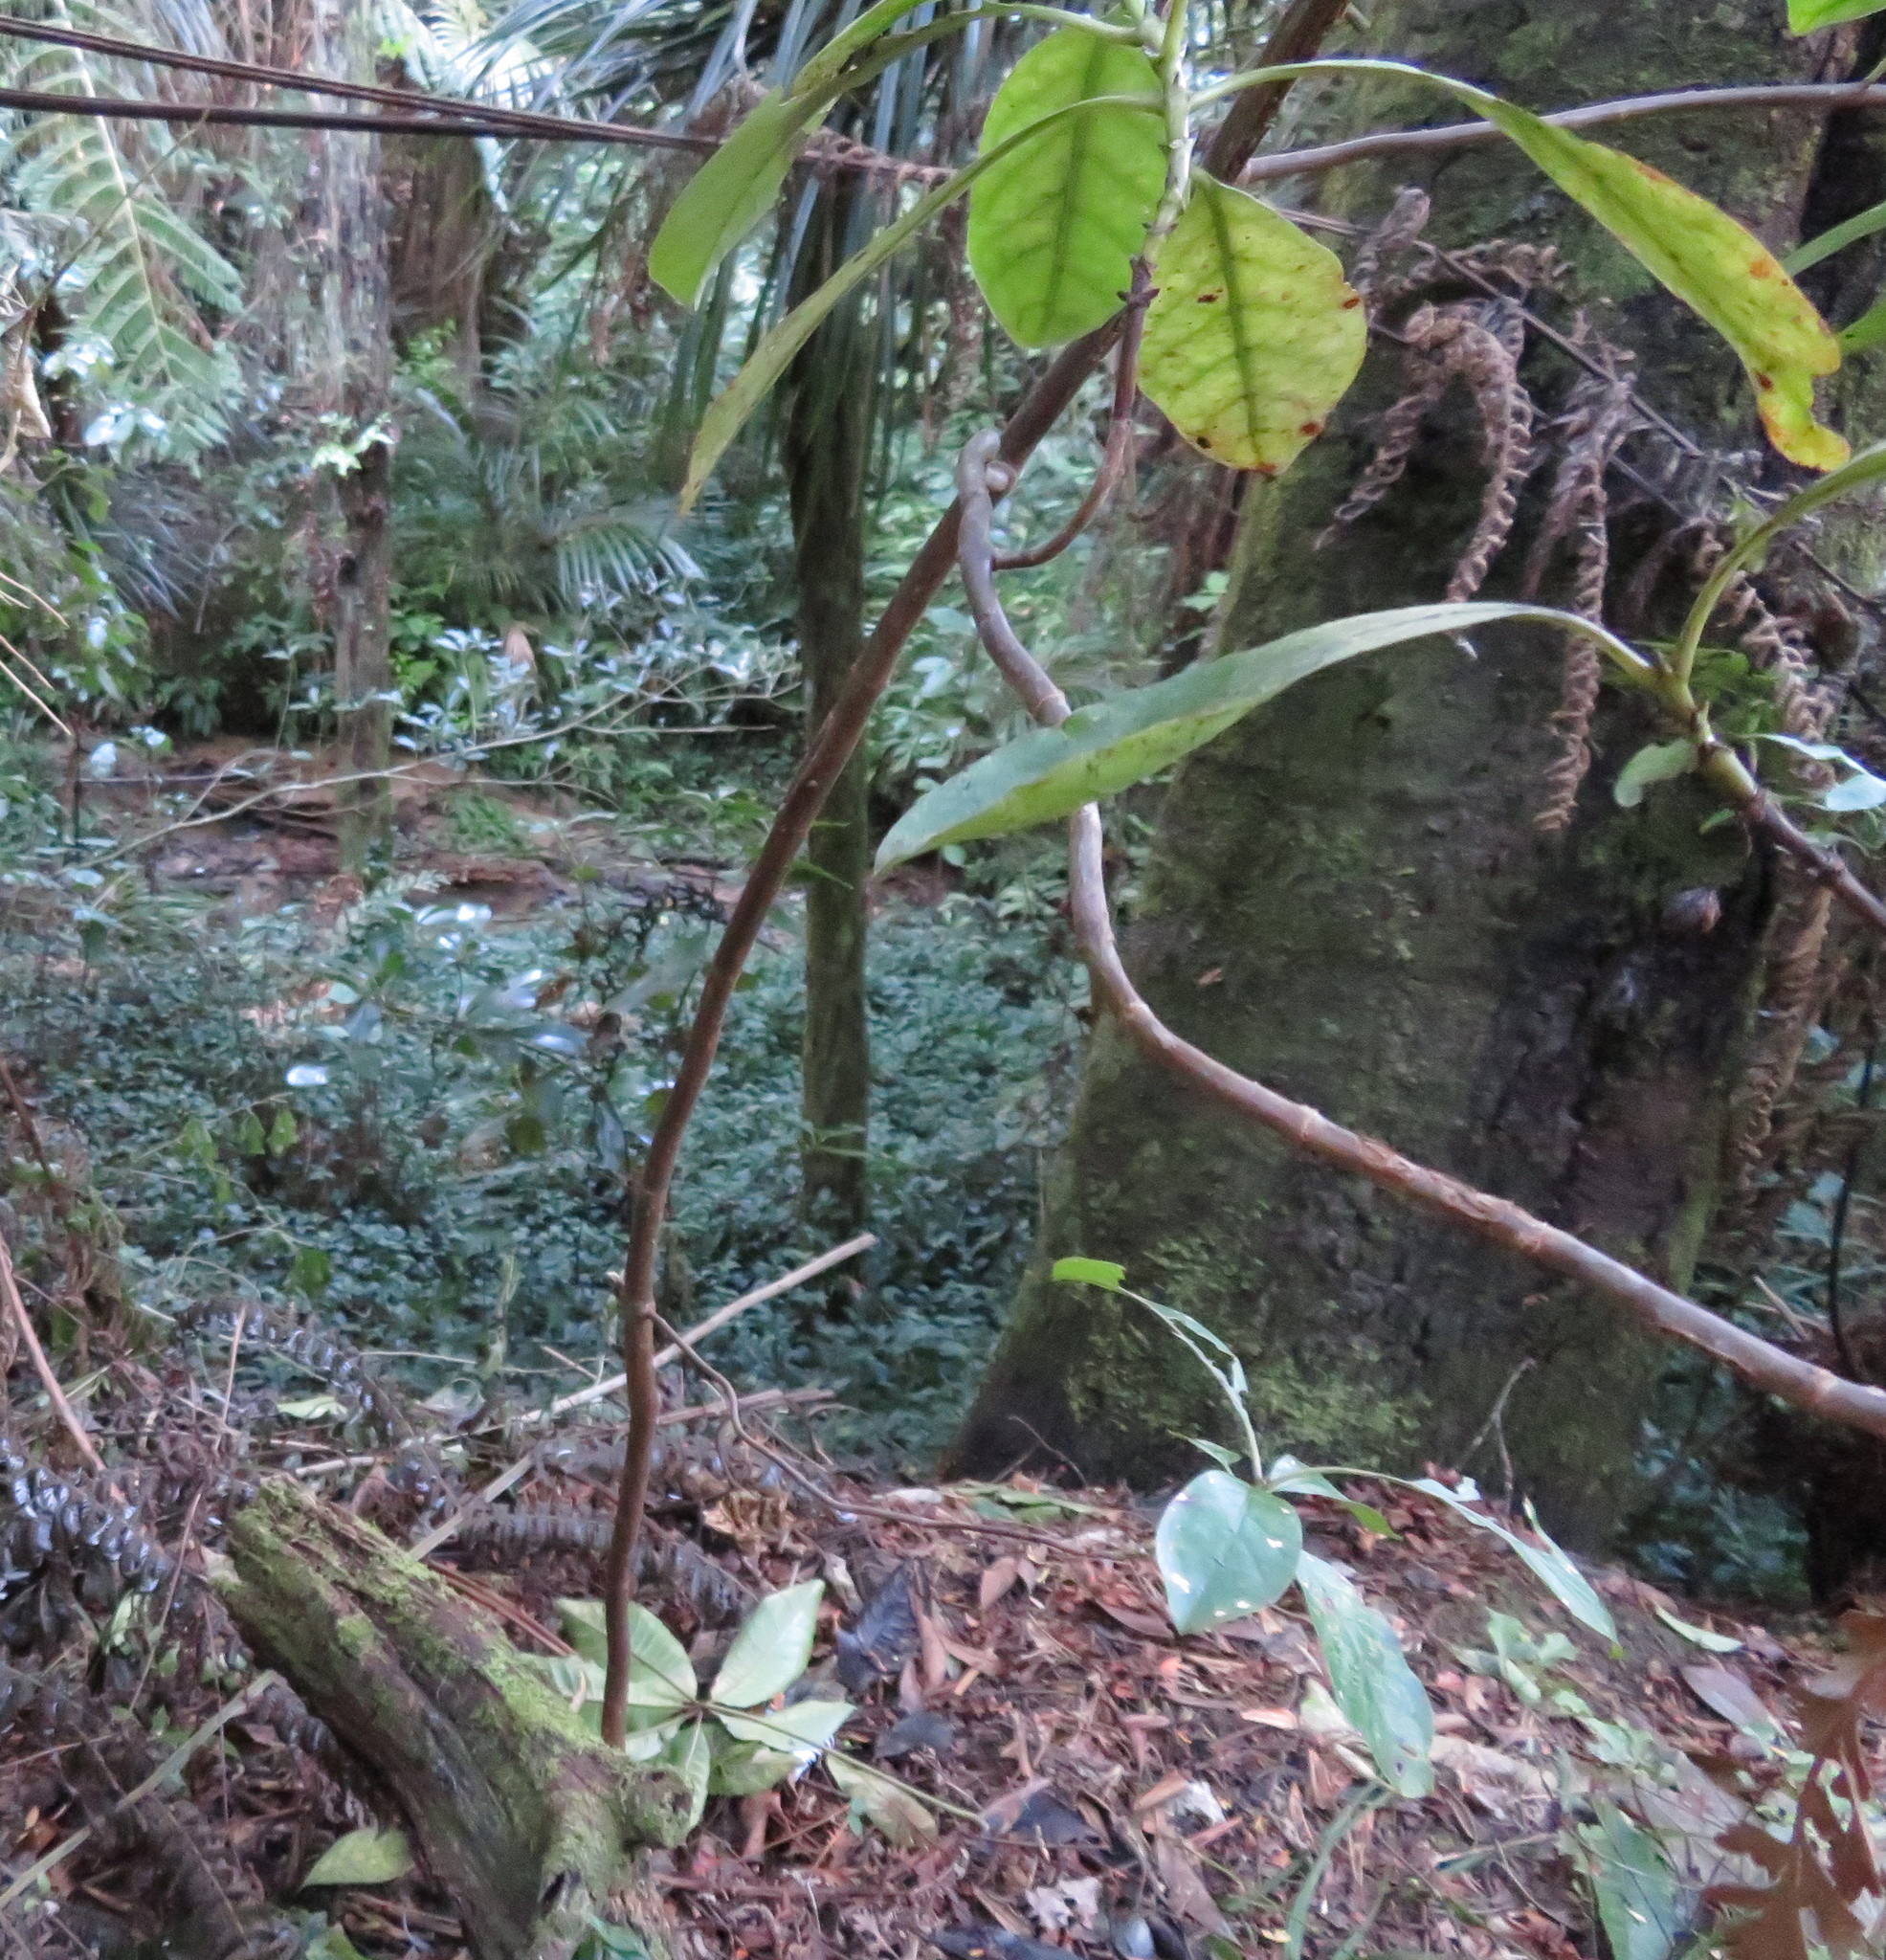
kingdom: Plantae
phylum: Tracheophyta
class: Pinopsida
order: Pinales
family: Phyllocladaceae
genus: Phyllocladus
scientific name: Phyllocladus trichomanoides
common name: Celery pine
